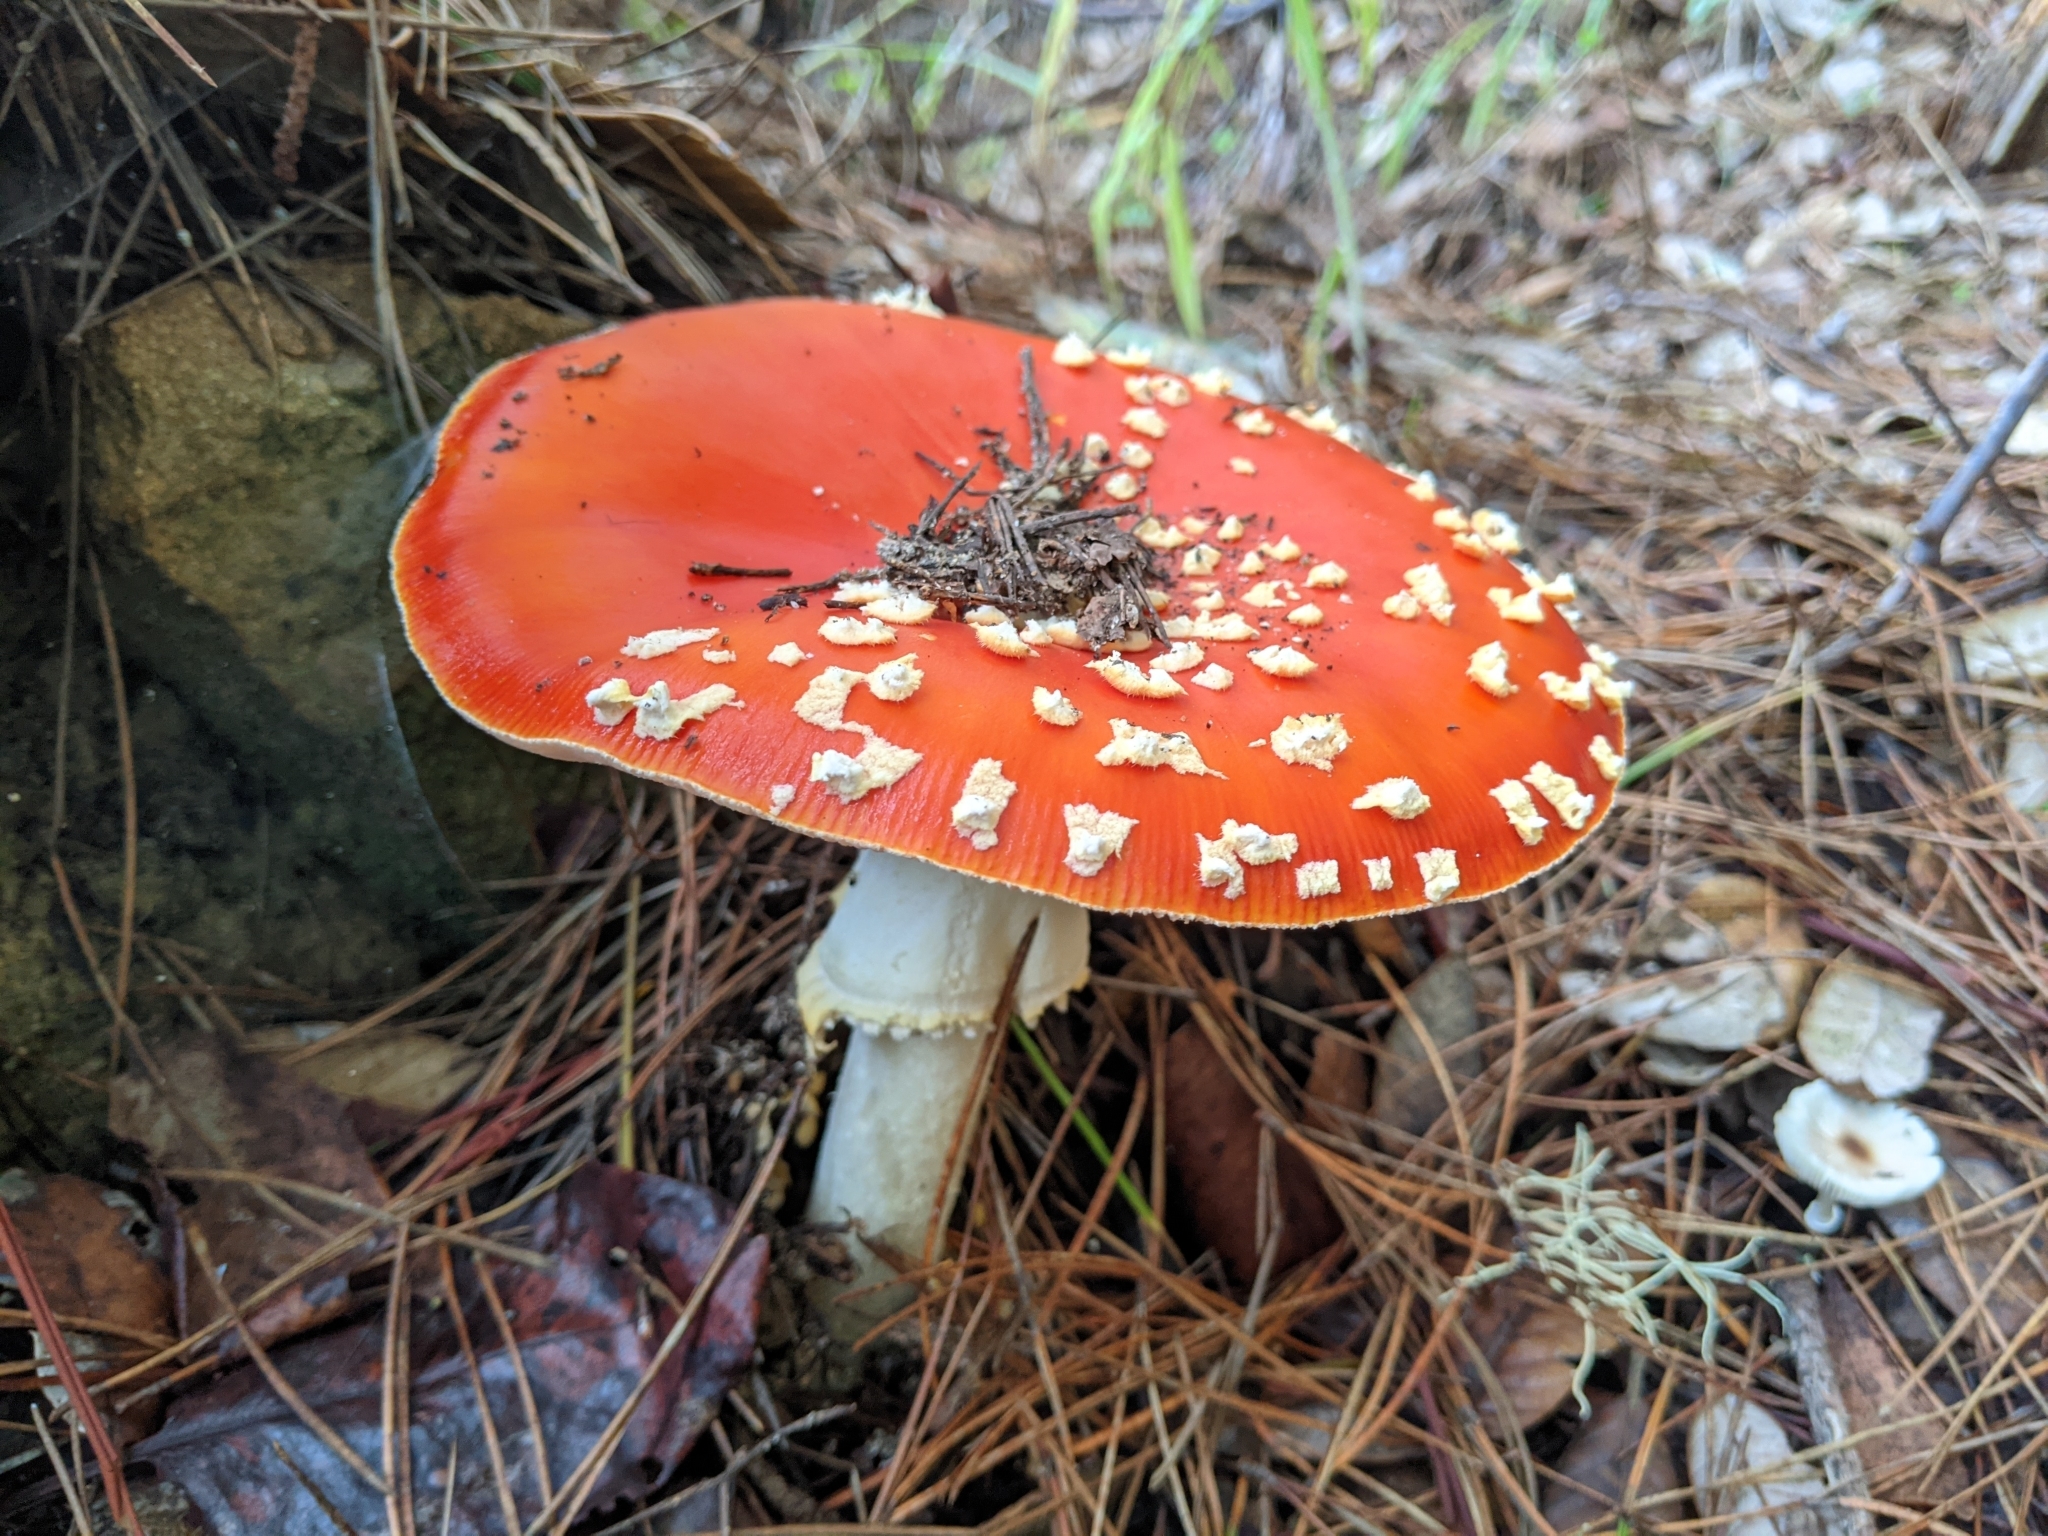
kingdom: Fungi
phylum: Basidiomycota
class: Agaricomycetes
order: Agaricales
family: Amanitaceae
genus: Amanita
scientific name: Amanita muscaria
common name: Fly agaric
